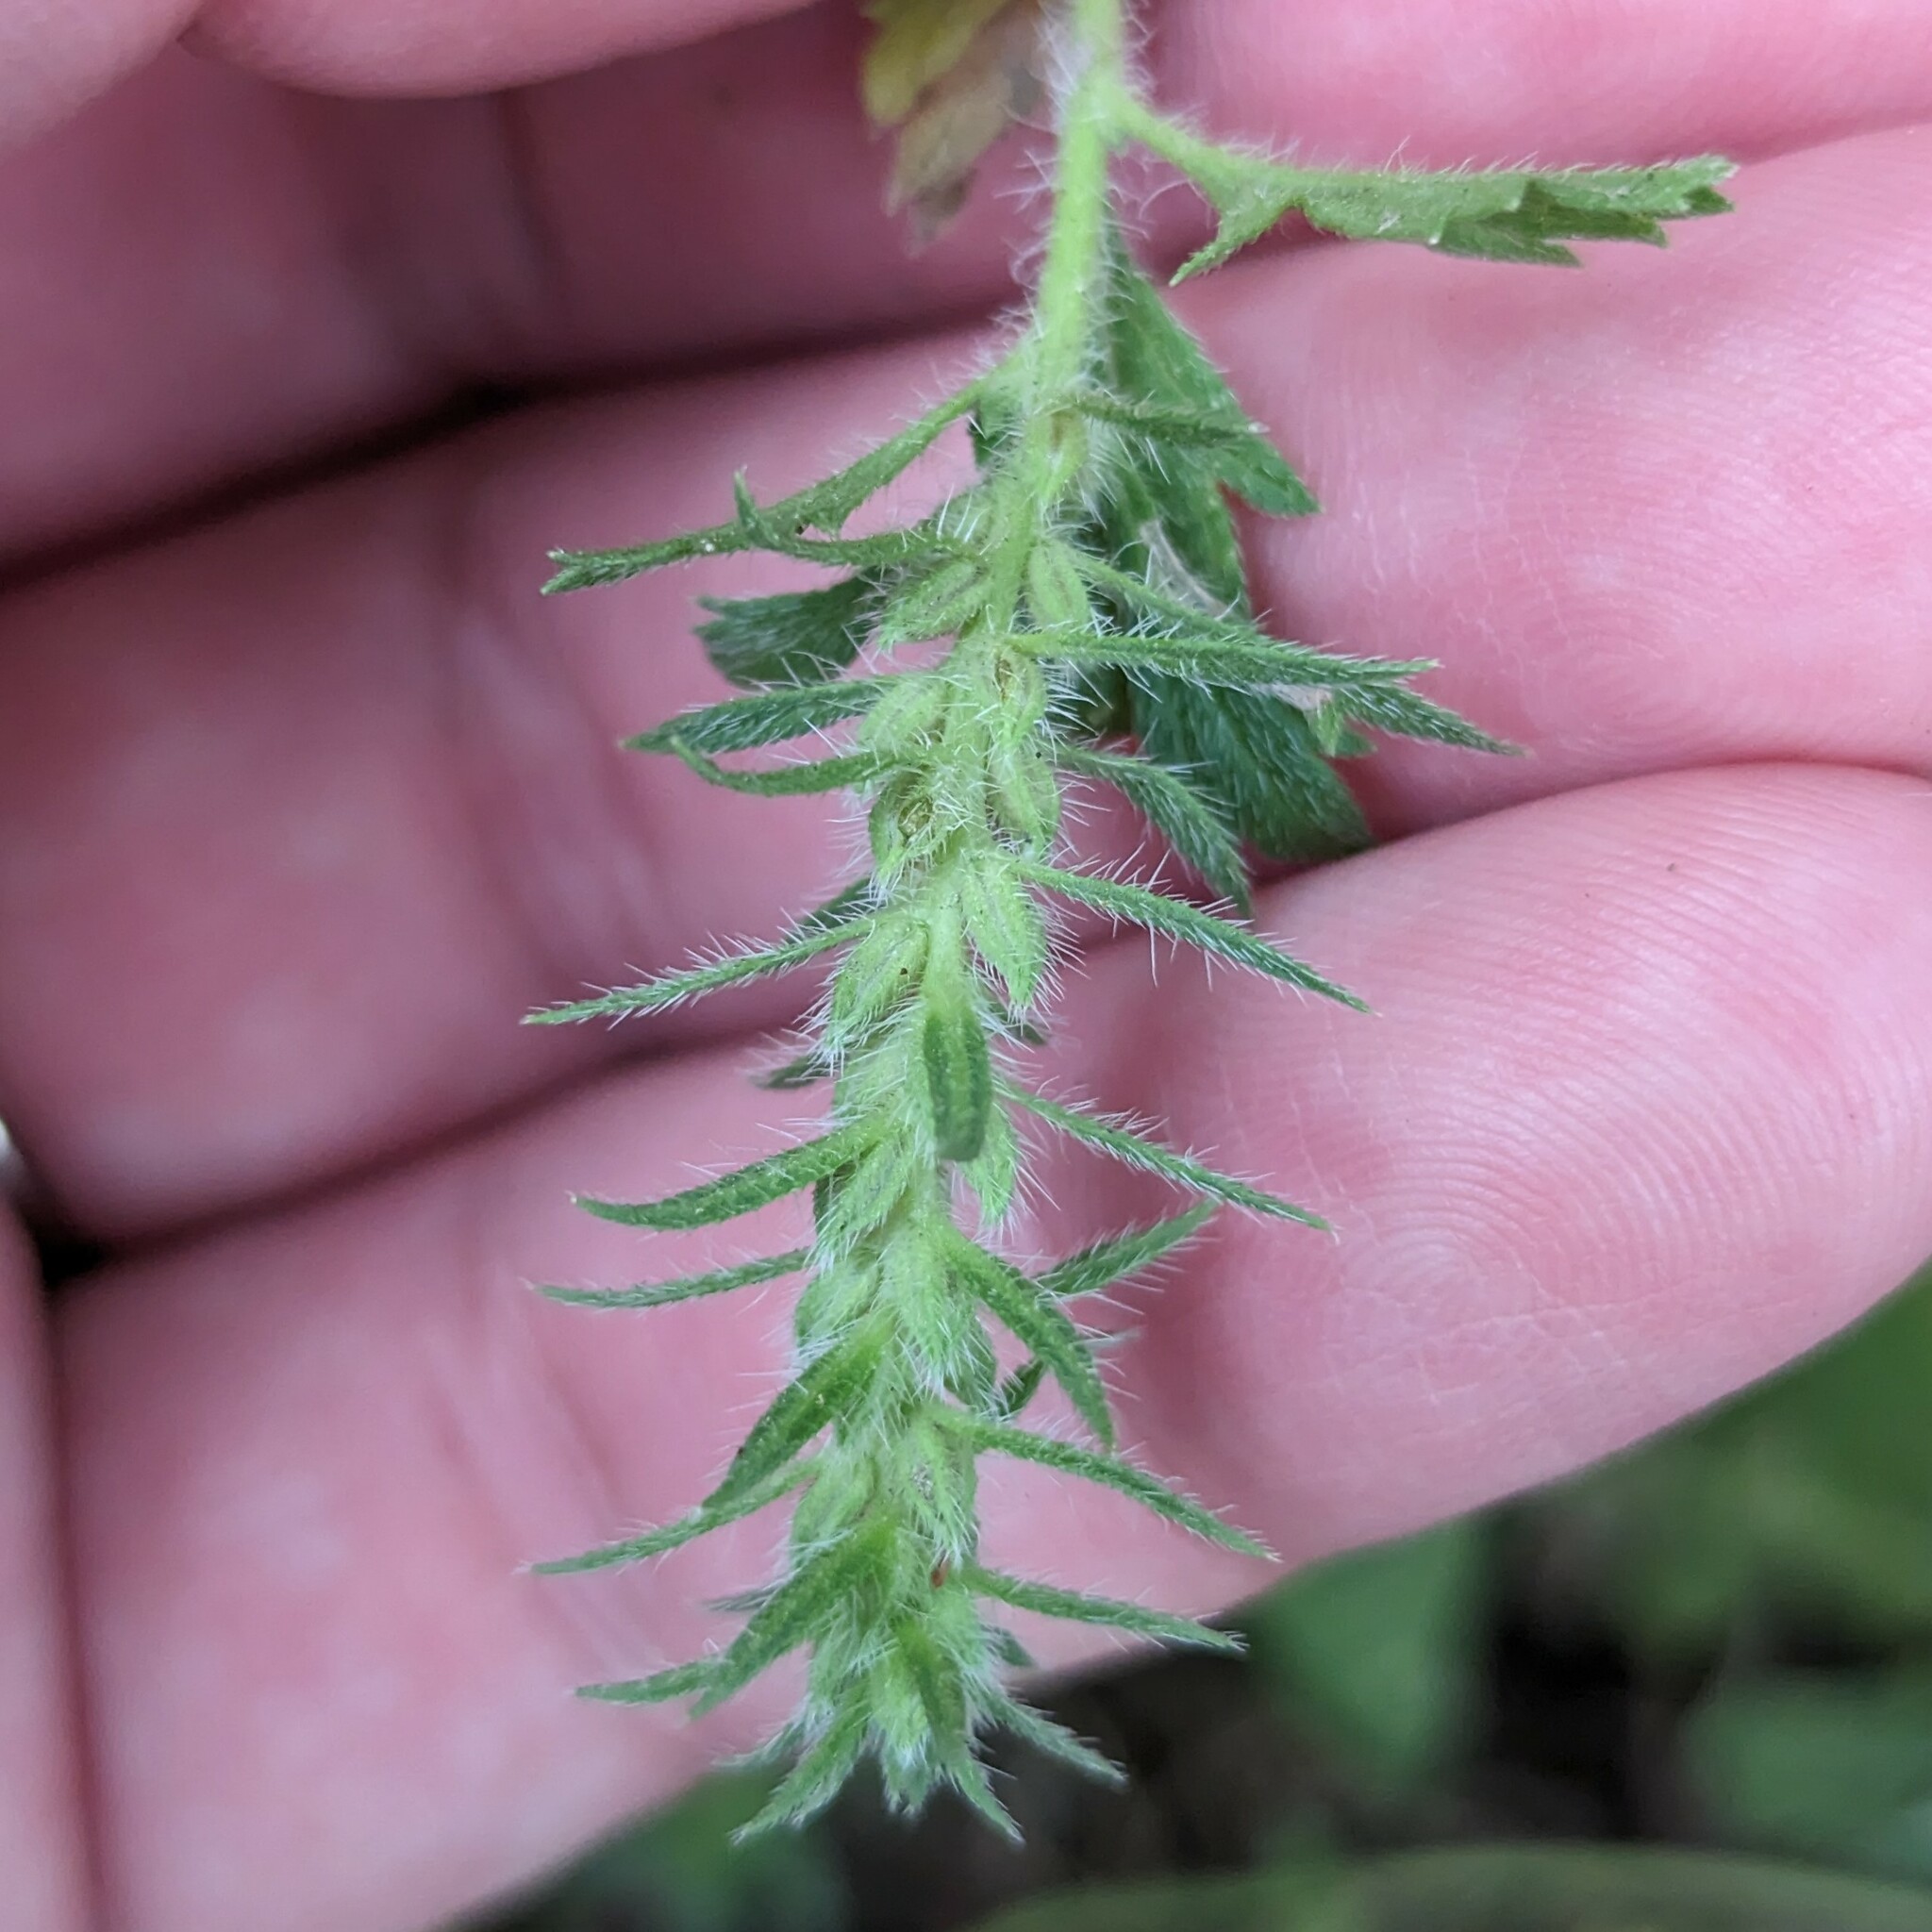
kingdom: Plantae
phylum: Tracheophyta
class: Magnoliopsida
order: Lamiales
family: Verbenaceae
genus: Verbena
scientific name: Verbena bracteata
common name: Bracted vervain
